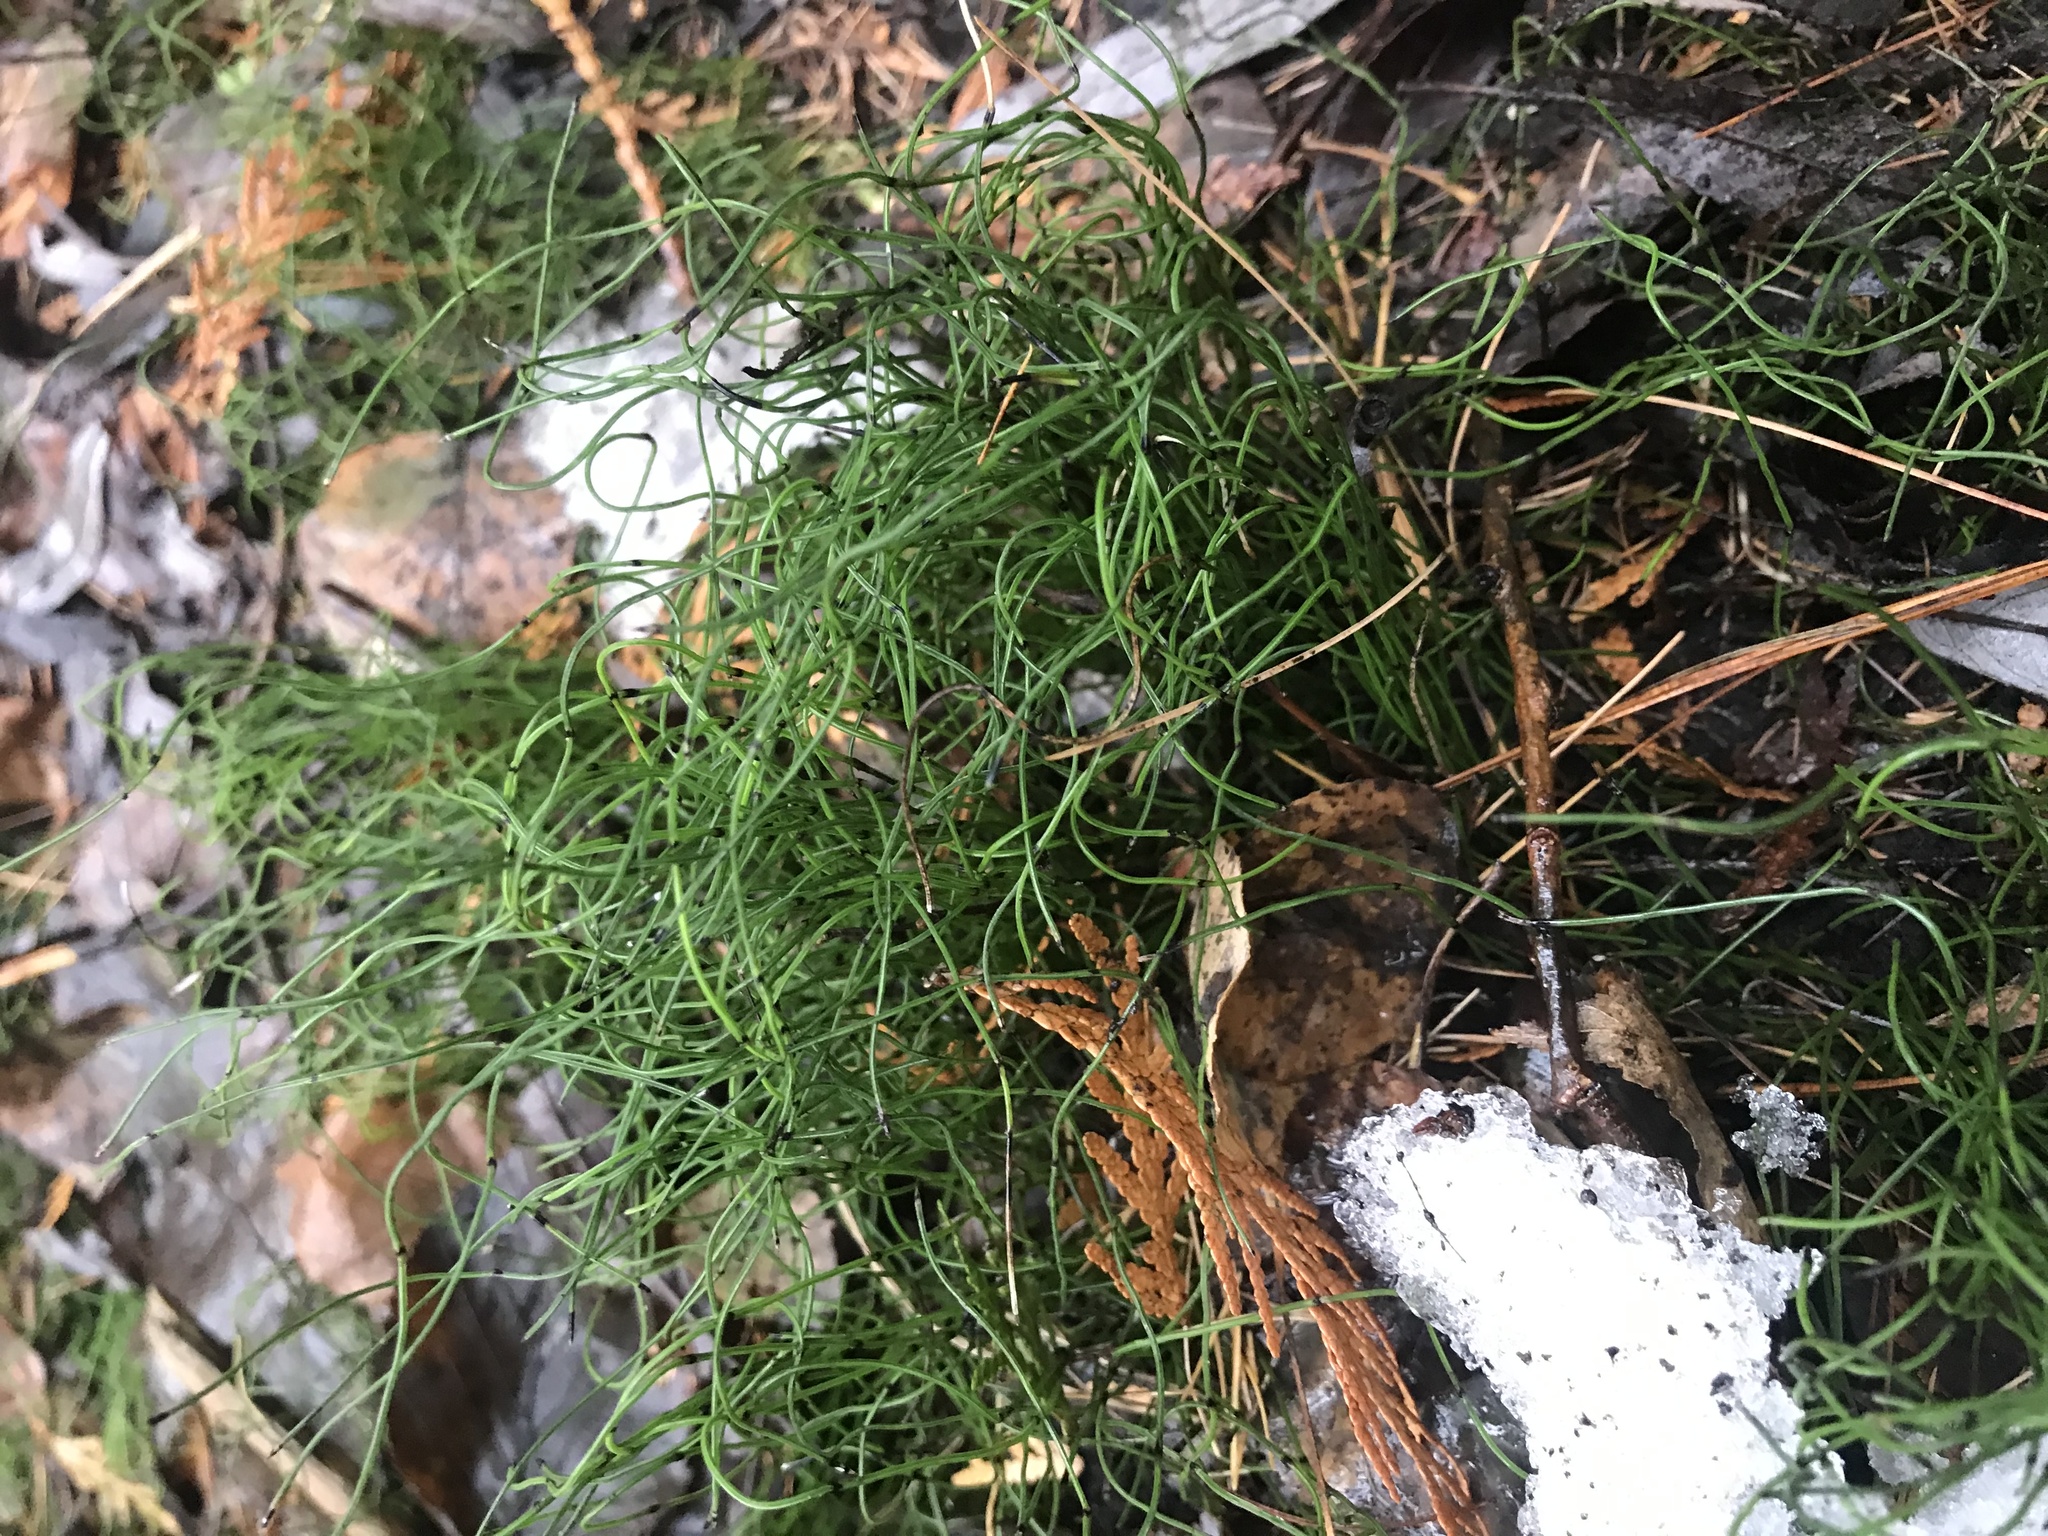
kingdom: Plantae
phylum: Tracheophyta
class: Polypodiopsida
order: Equisetales
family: Equisetaceae
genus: Equisetum
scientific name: Equisetum scirpoides
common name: Delicate horsetail
